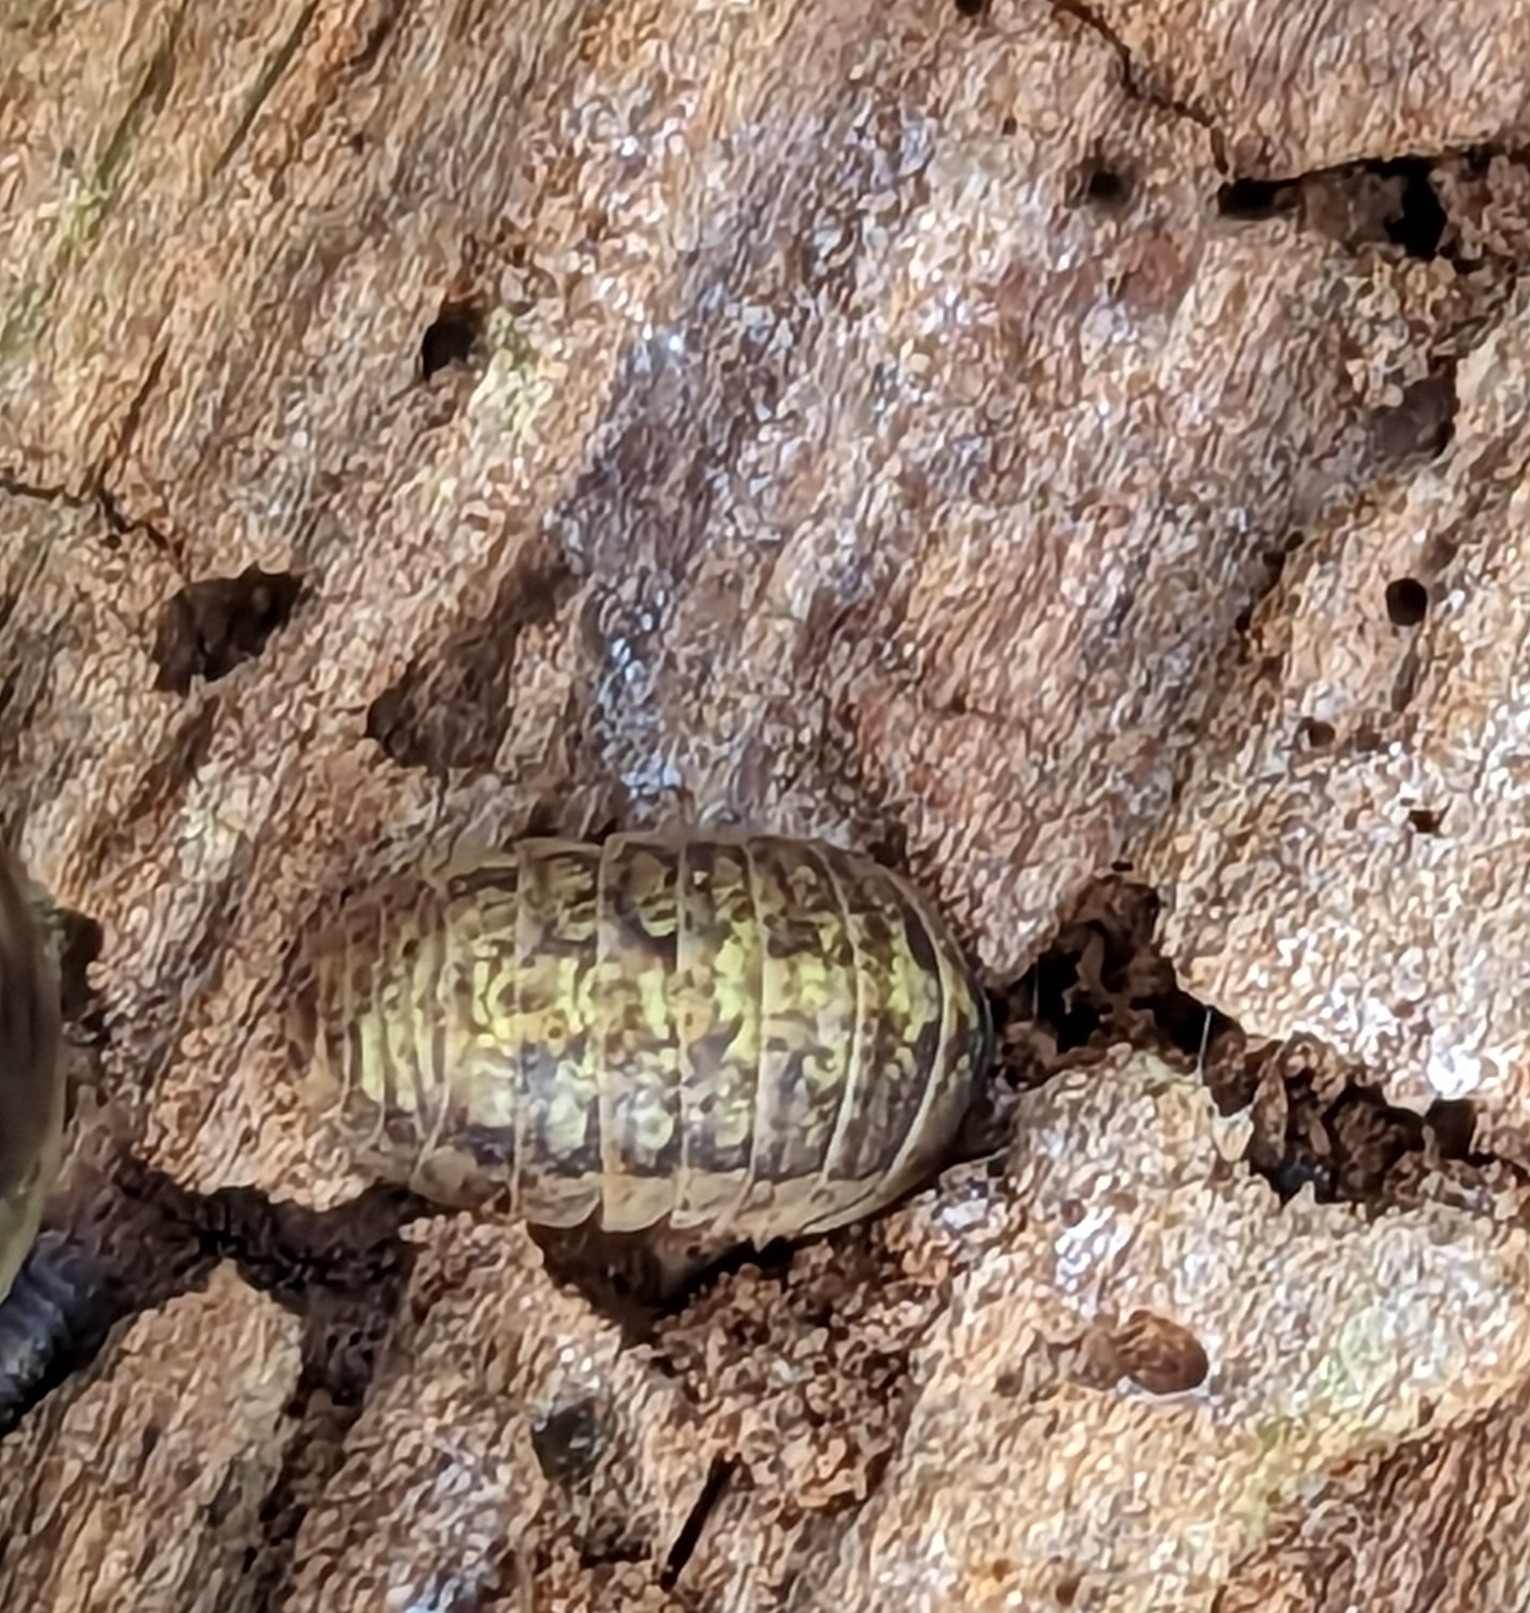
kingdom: Animalia
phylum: Arthropoda
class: Malacostraca
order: Isopoda
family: Armadillidiidae
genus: Armadillidium
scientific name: Armadillidium vulgare
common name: Common pill woodlouse
